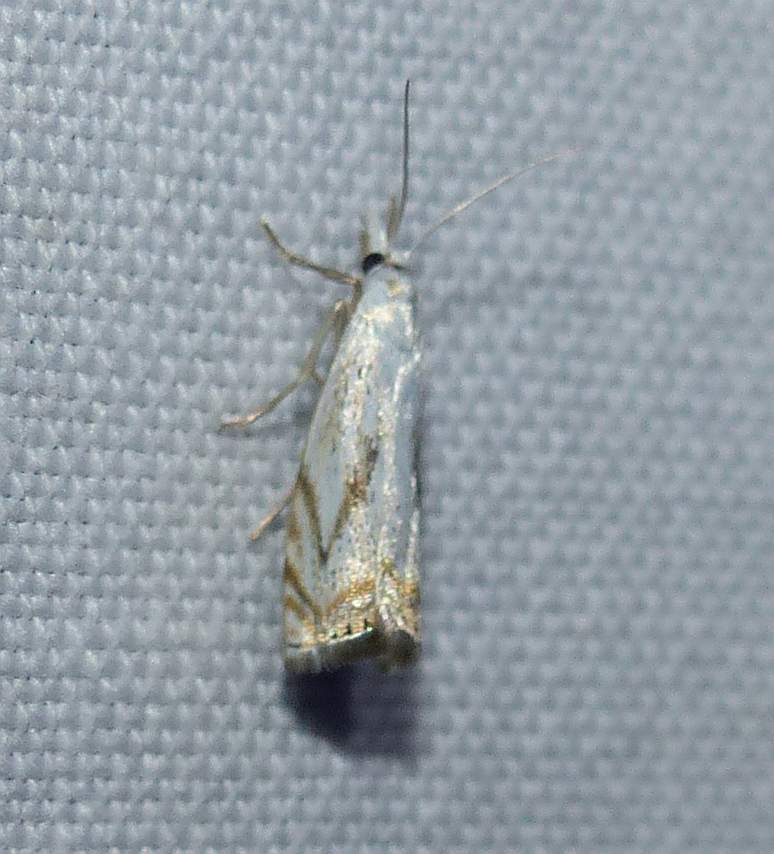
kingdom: Animalia
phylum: Arthropoda
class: Insecta
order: Lepidoptera
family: Crambidae
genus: Crambus
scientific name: Crambus albellus
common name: Small white grass-veneer
